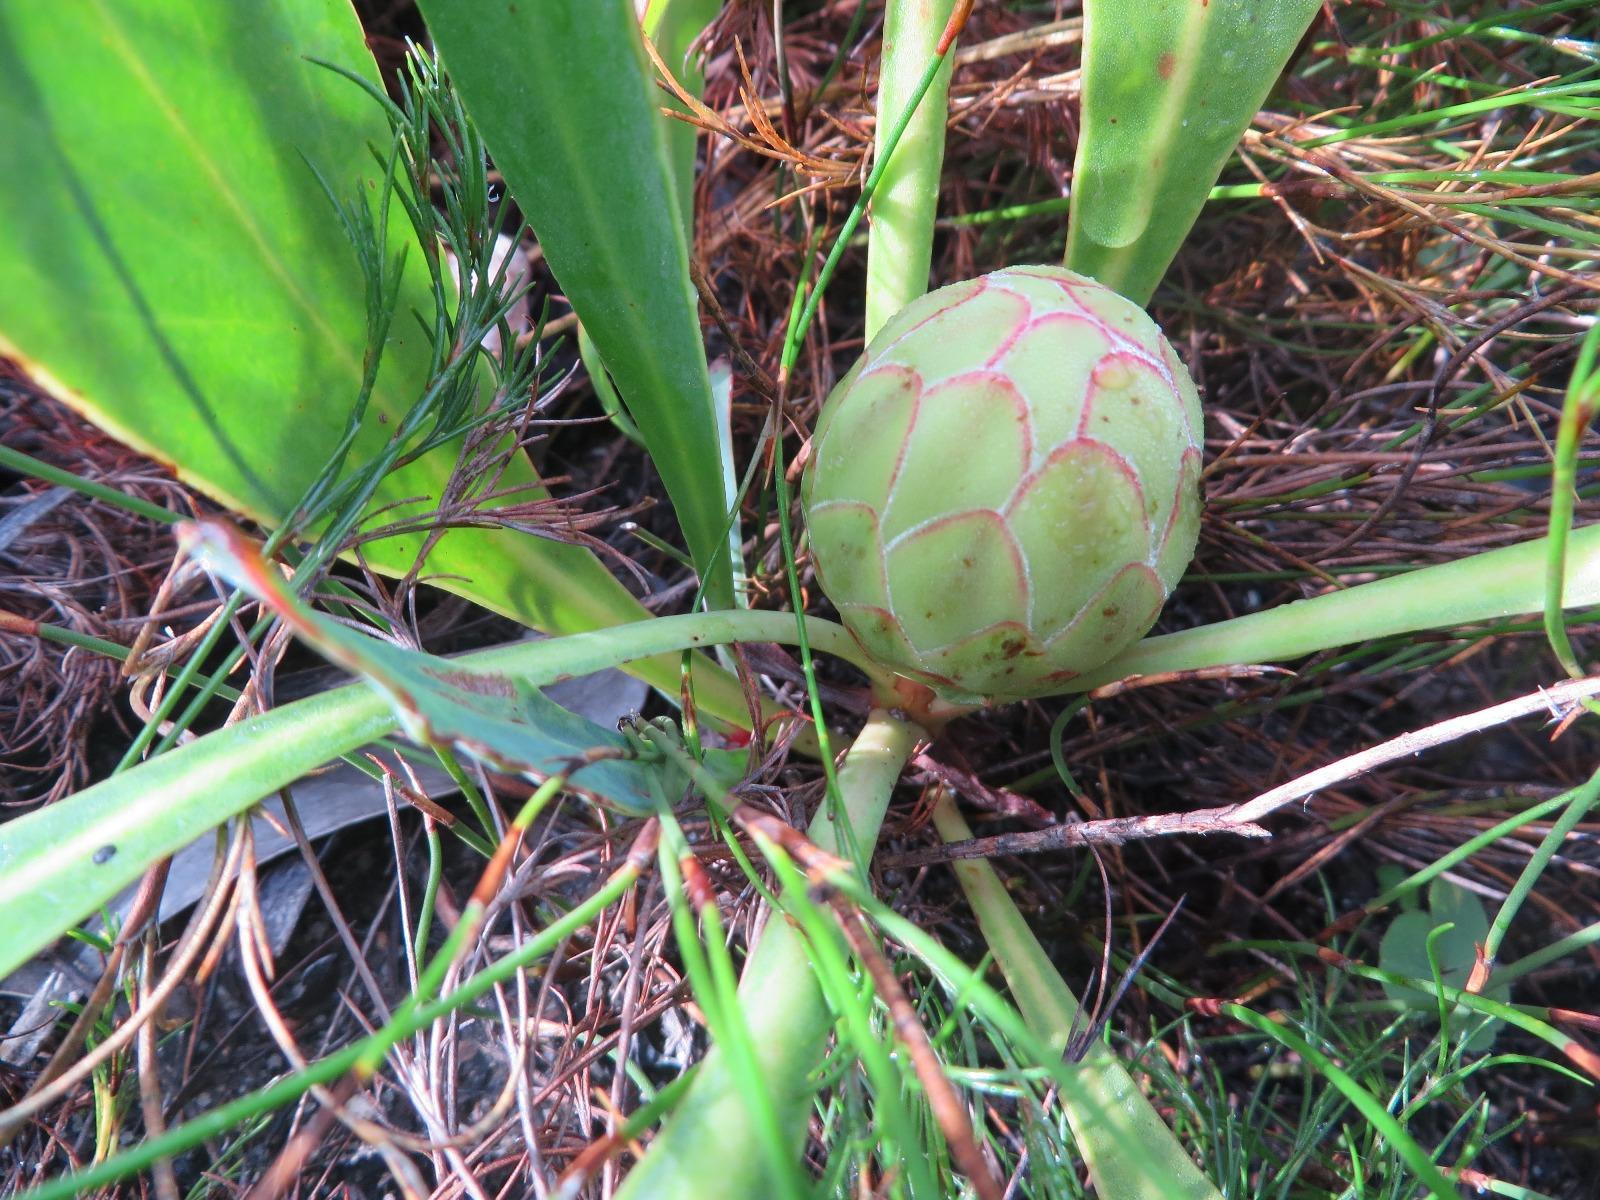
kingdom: Plantae
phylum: Tracheophyta
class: Magnoliopsida
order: Proteales
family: Proteaceae
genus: Protea
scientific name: Protea acaulos
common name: Common ground sugarbush
